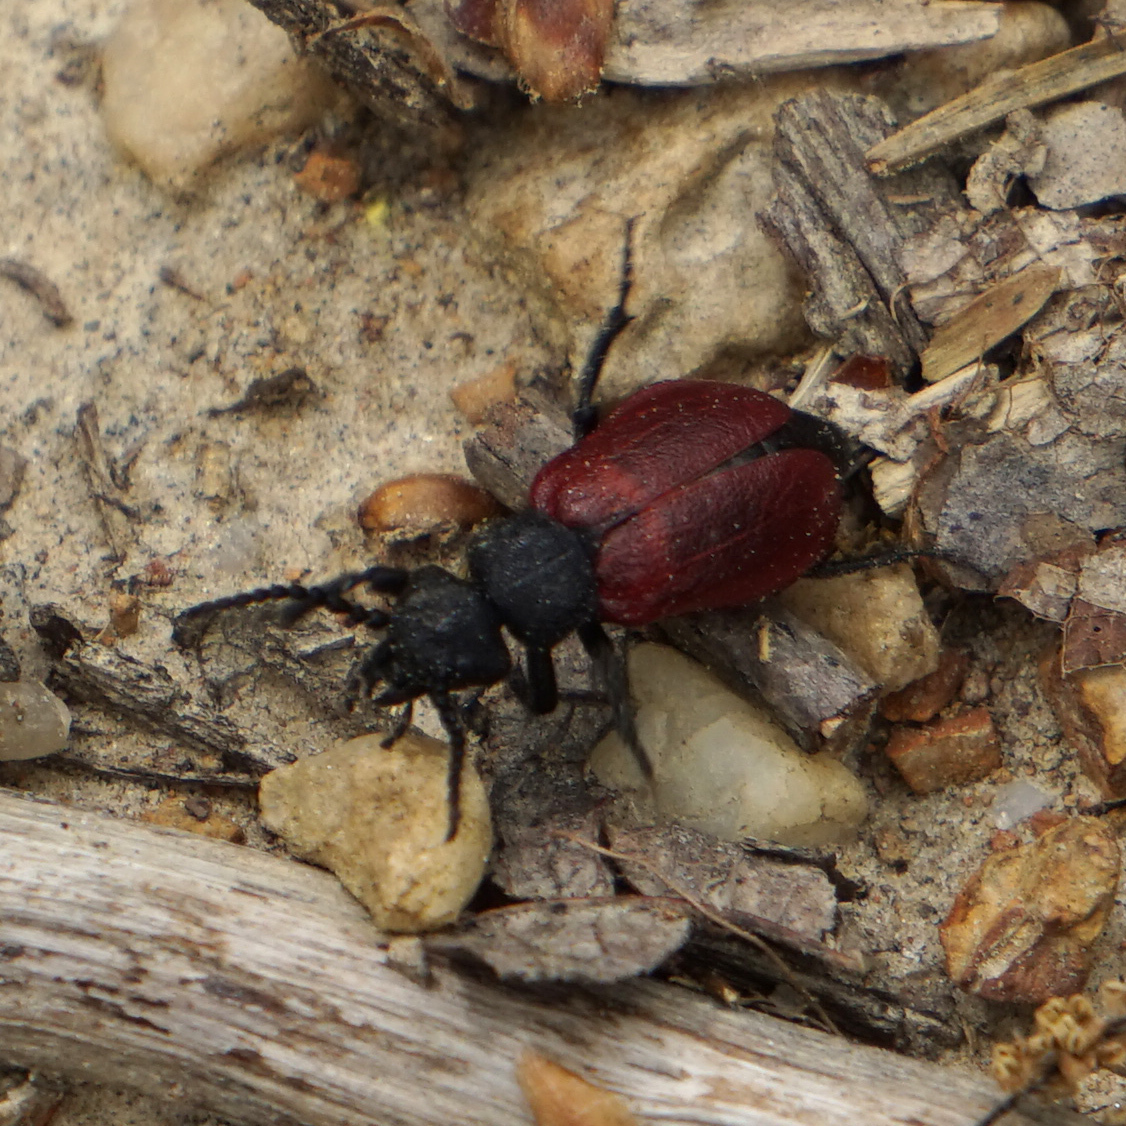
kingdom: Animalia
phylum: Arthropoda
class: Insecta
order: Coleoptera
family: Meloidae
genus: Tricrania
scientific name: Tricrania sanguinipennis
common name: Blood-winged blister beetle
